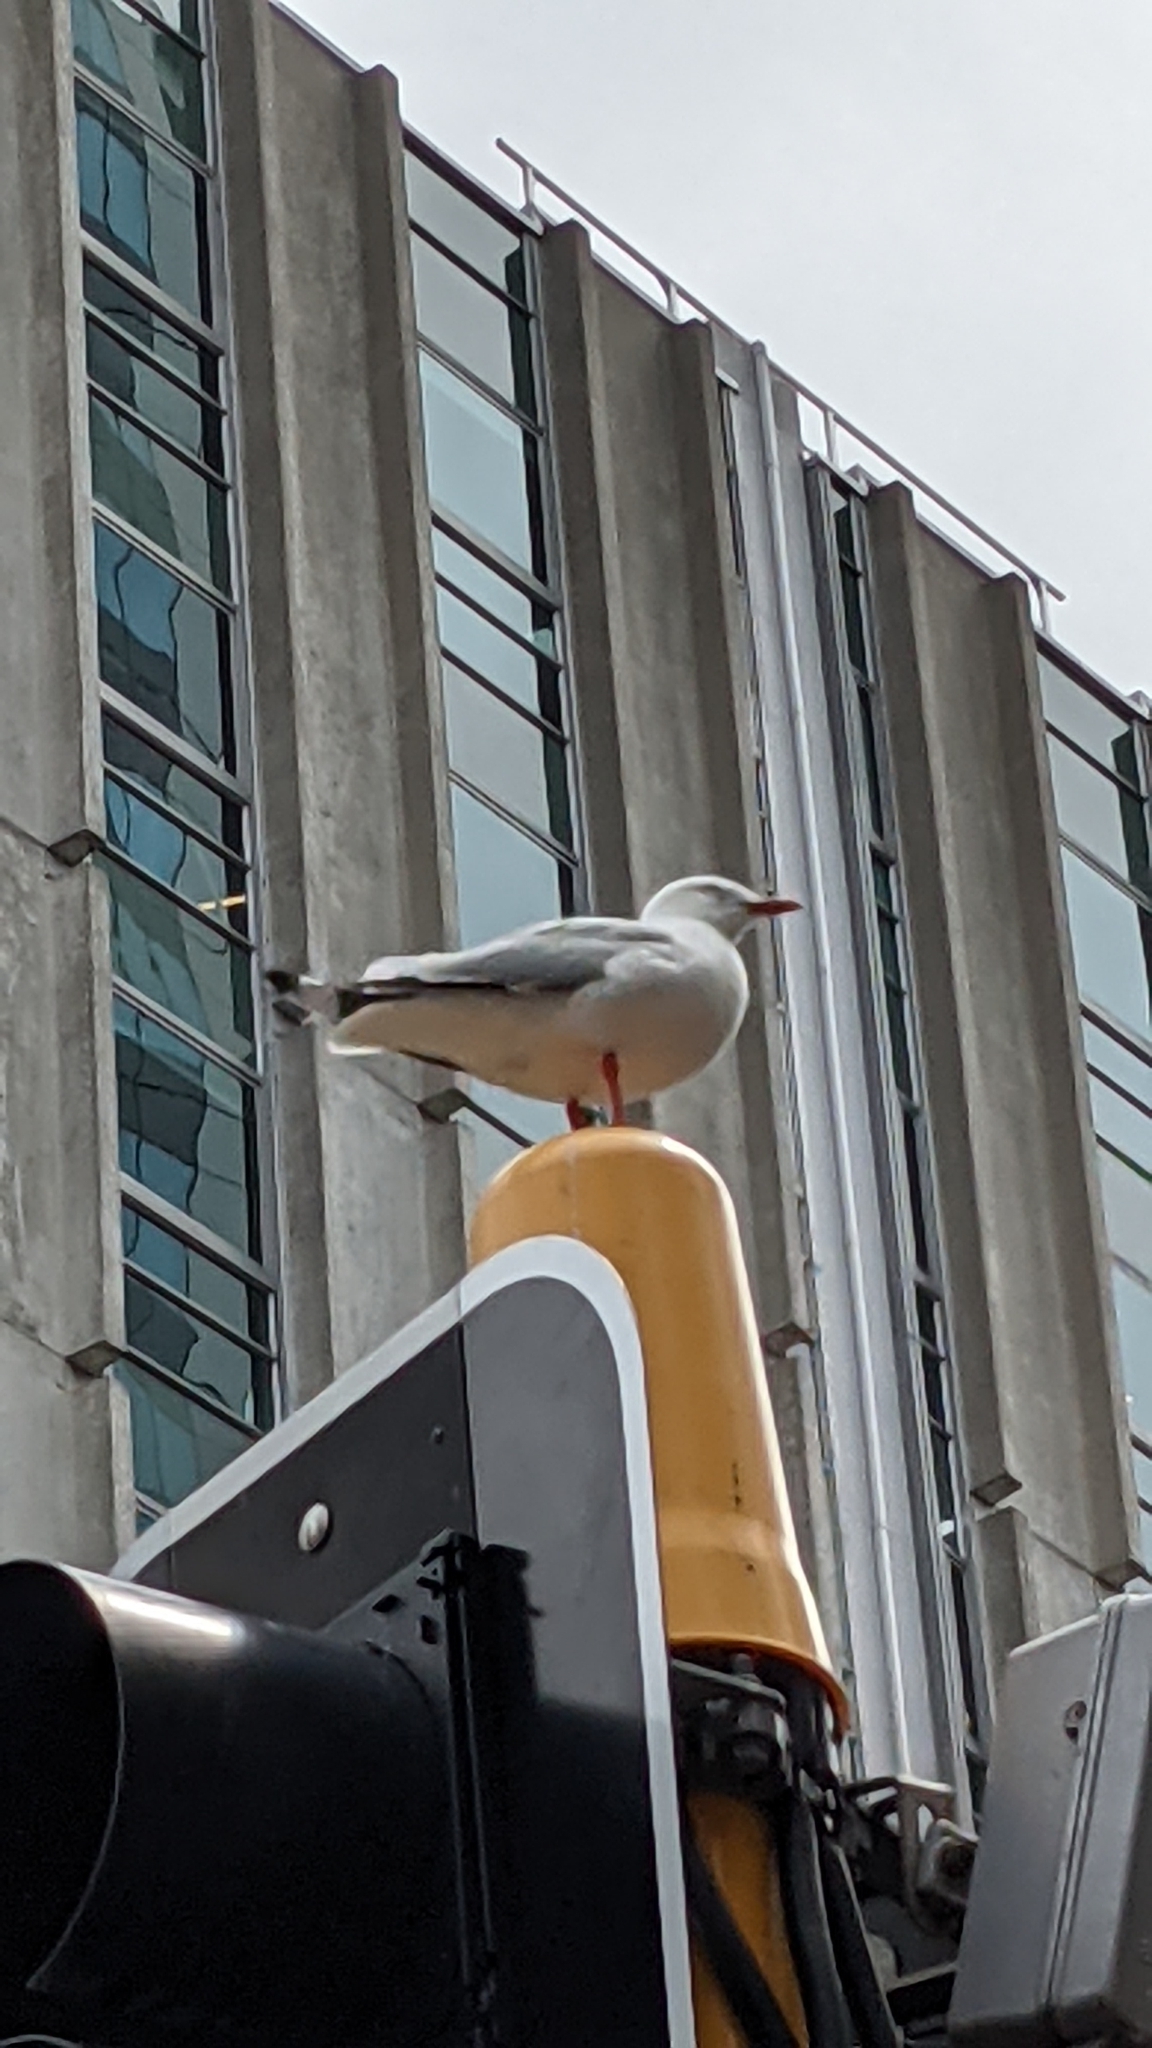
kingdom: Animalia
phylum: Chordata
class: Aves
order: Charadriiformes
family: Laridae
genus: Chroicocephalus
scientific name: Chroicocephalus novaehollandiae
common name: Silver gull
